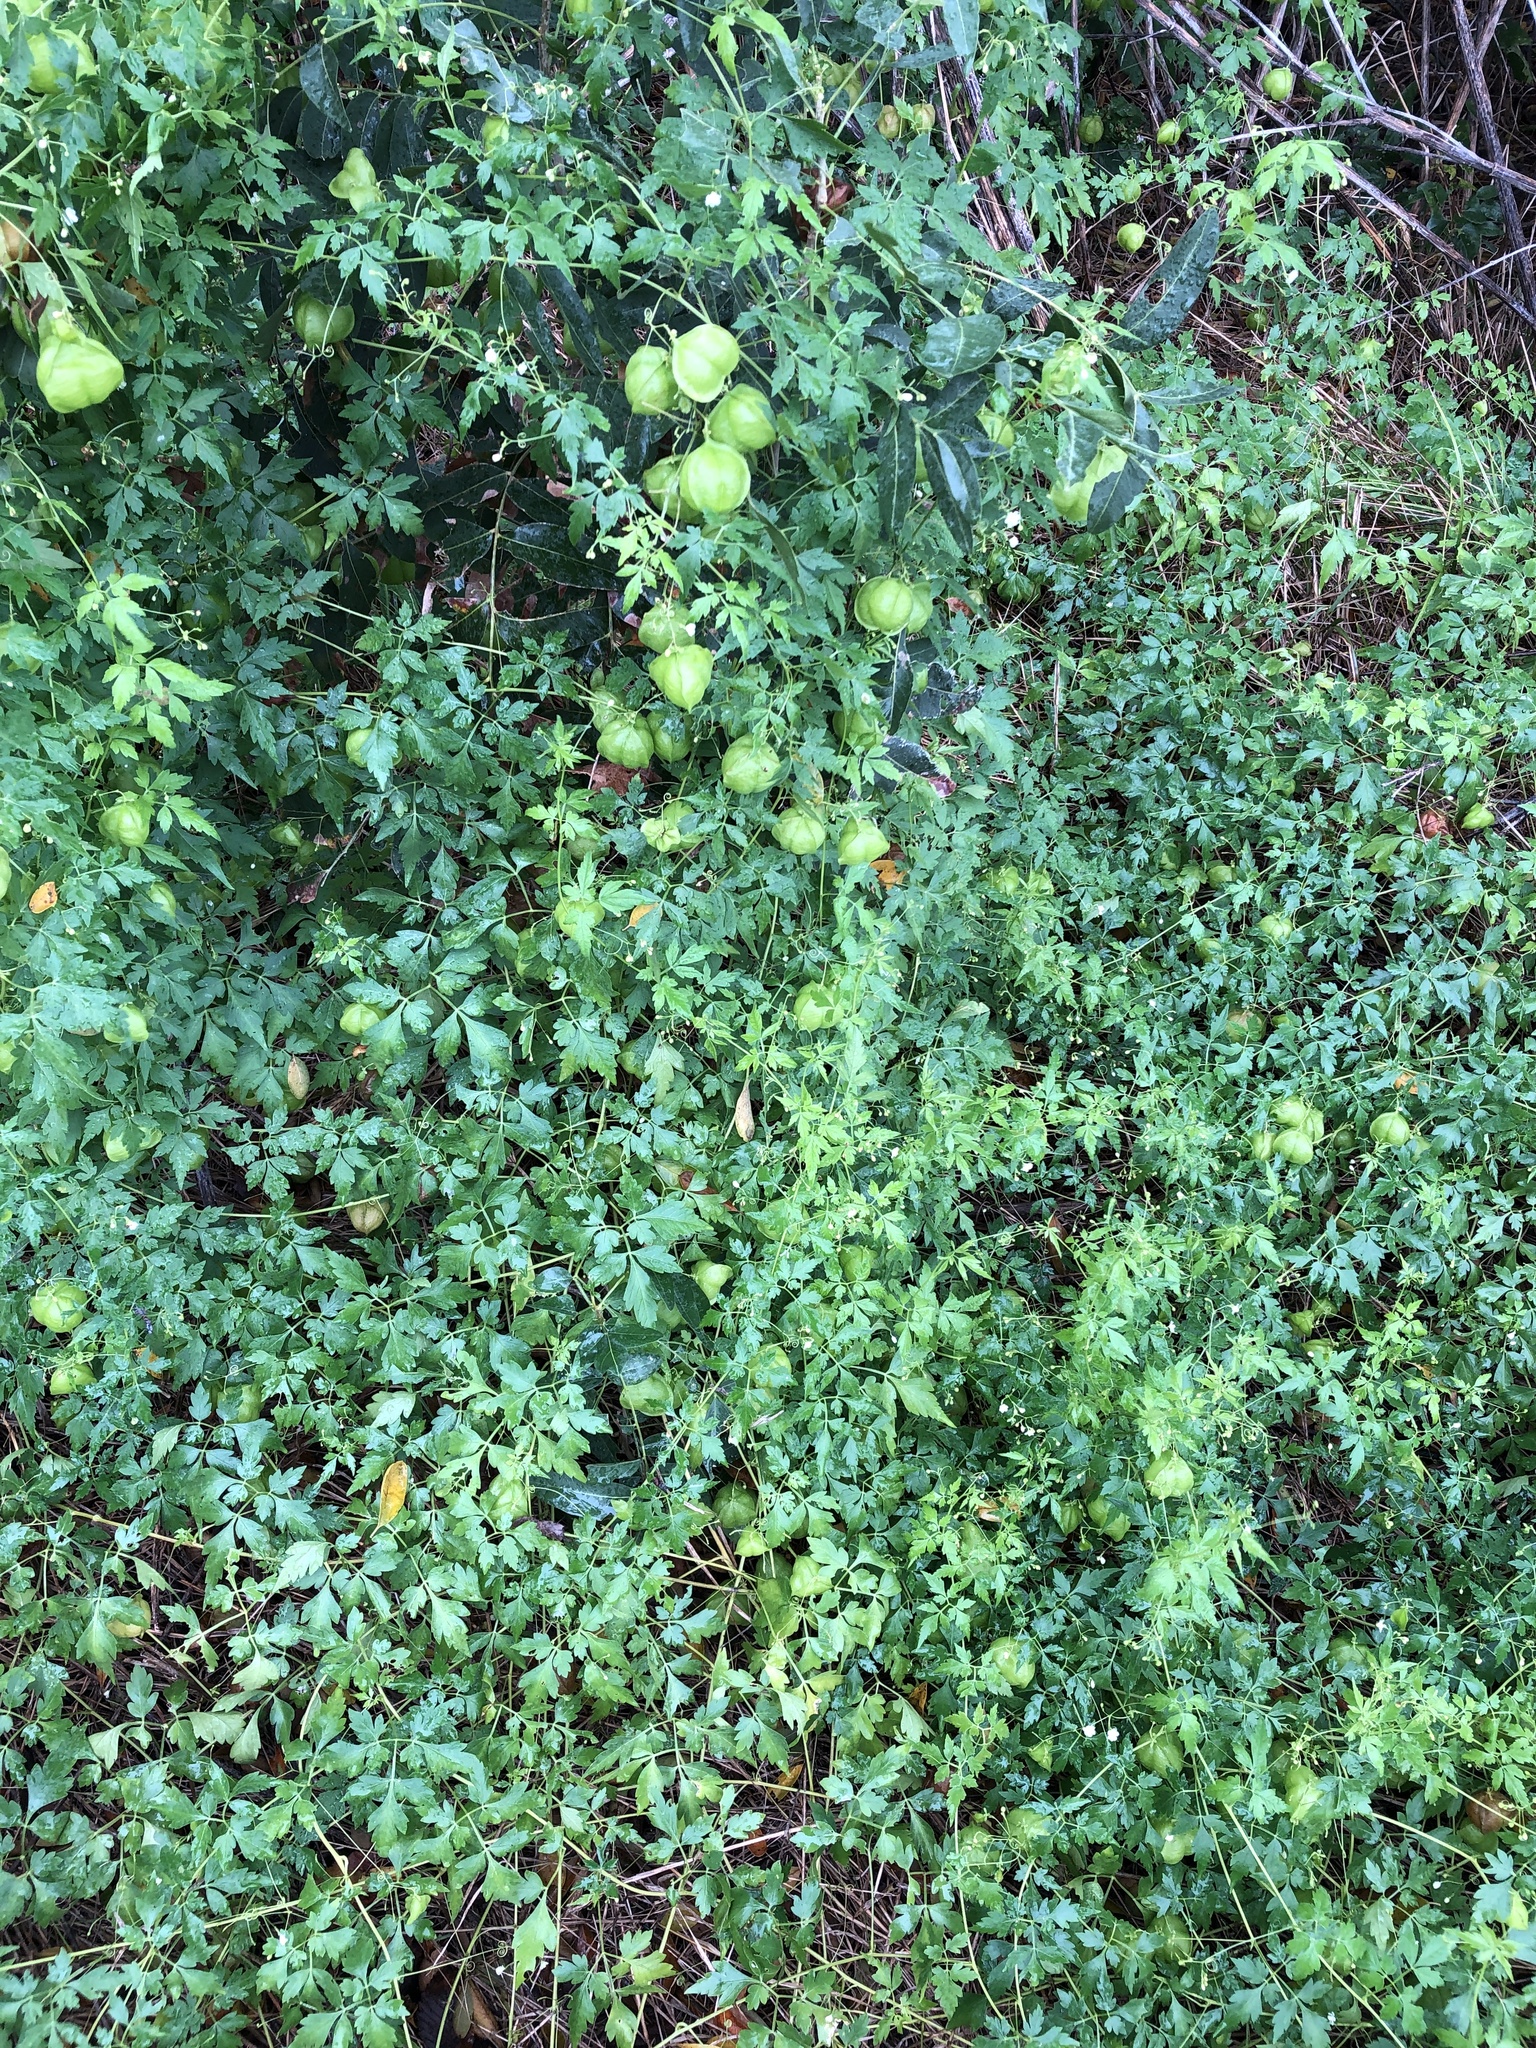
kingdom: Plantae
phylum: Tracheophyta
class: Magnoliopsida
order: Sapindales
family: Sapindaceae
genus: Cardiospermum
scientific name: Cardiospermum halicacabum
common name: Balloon vine
